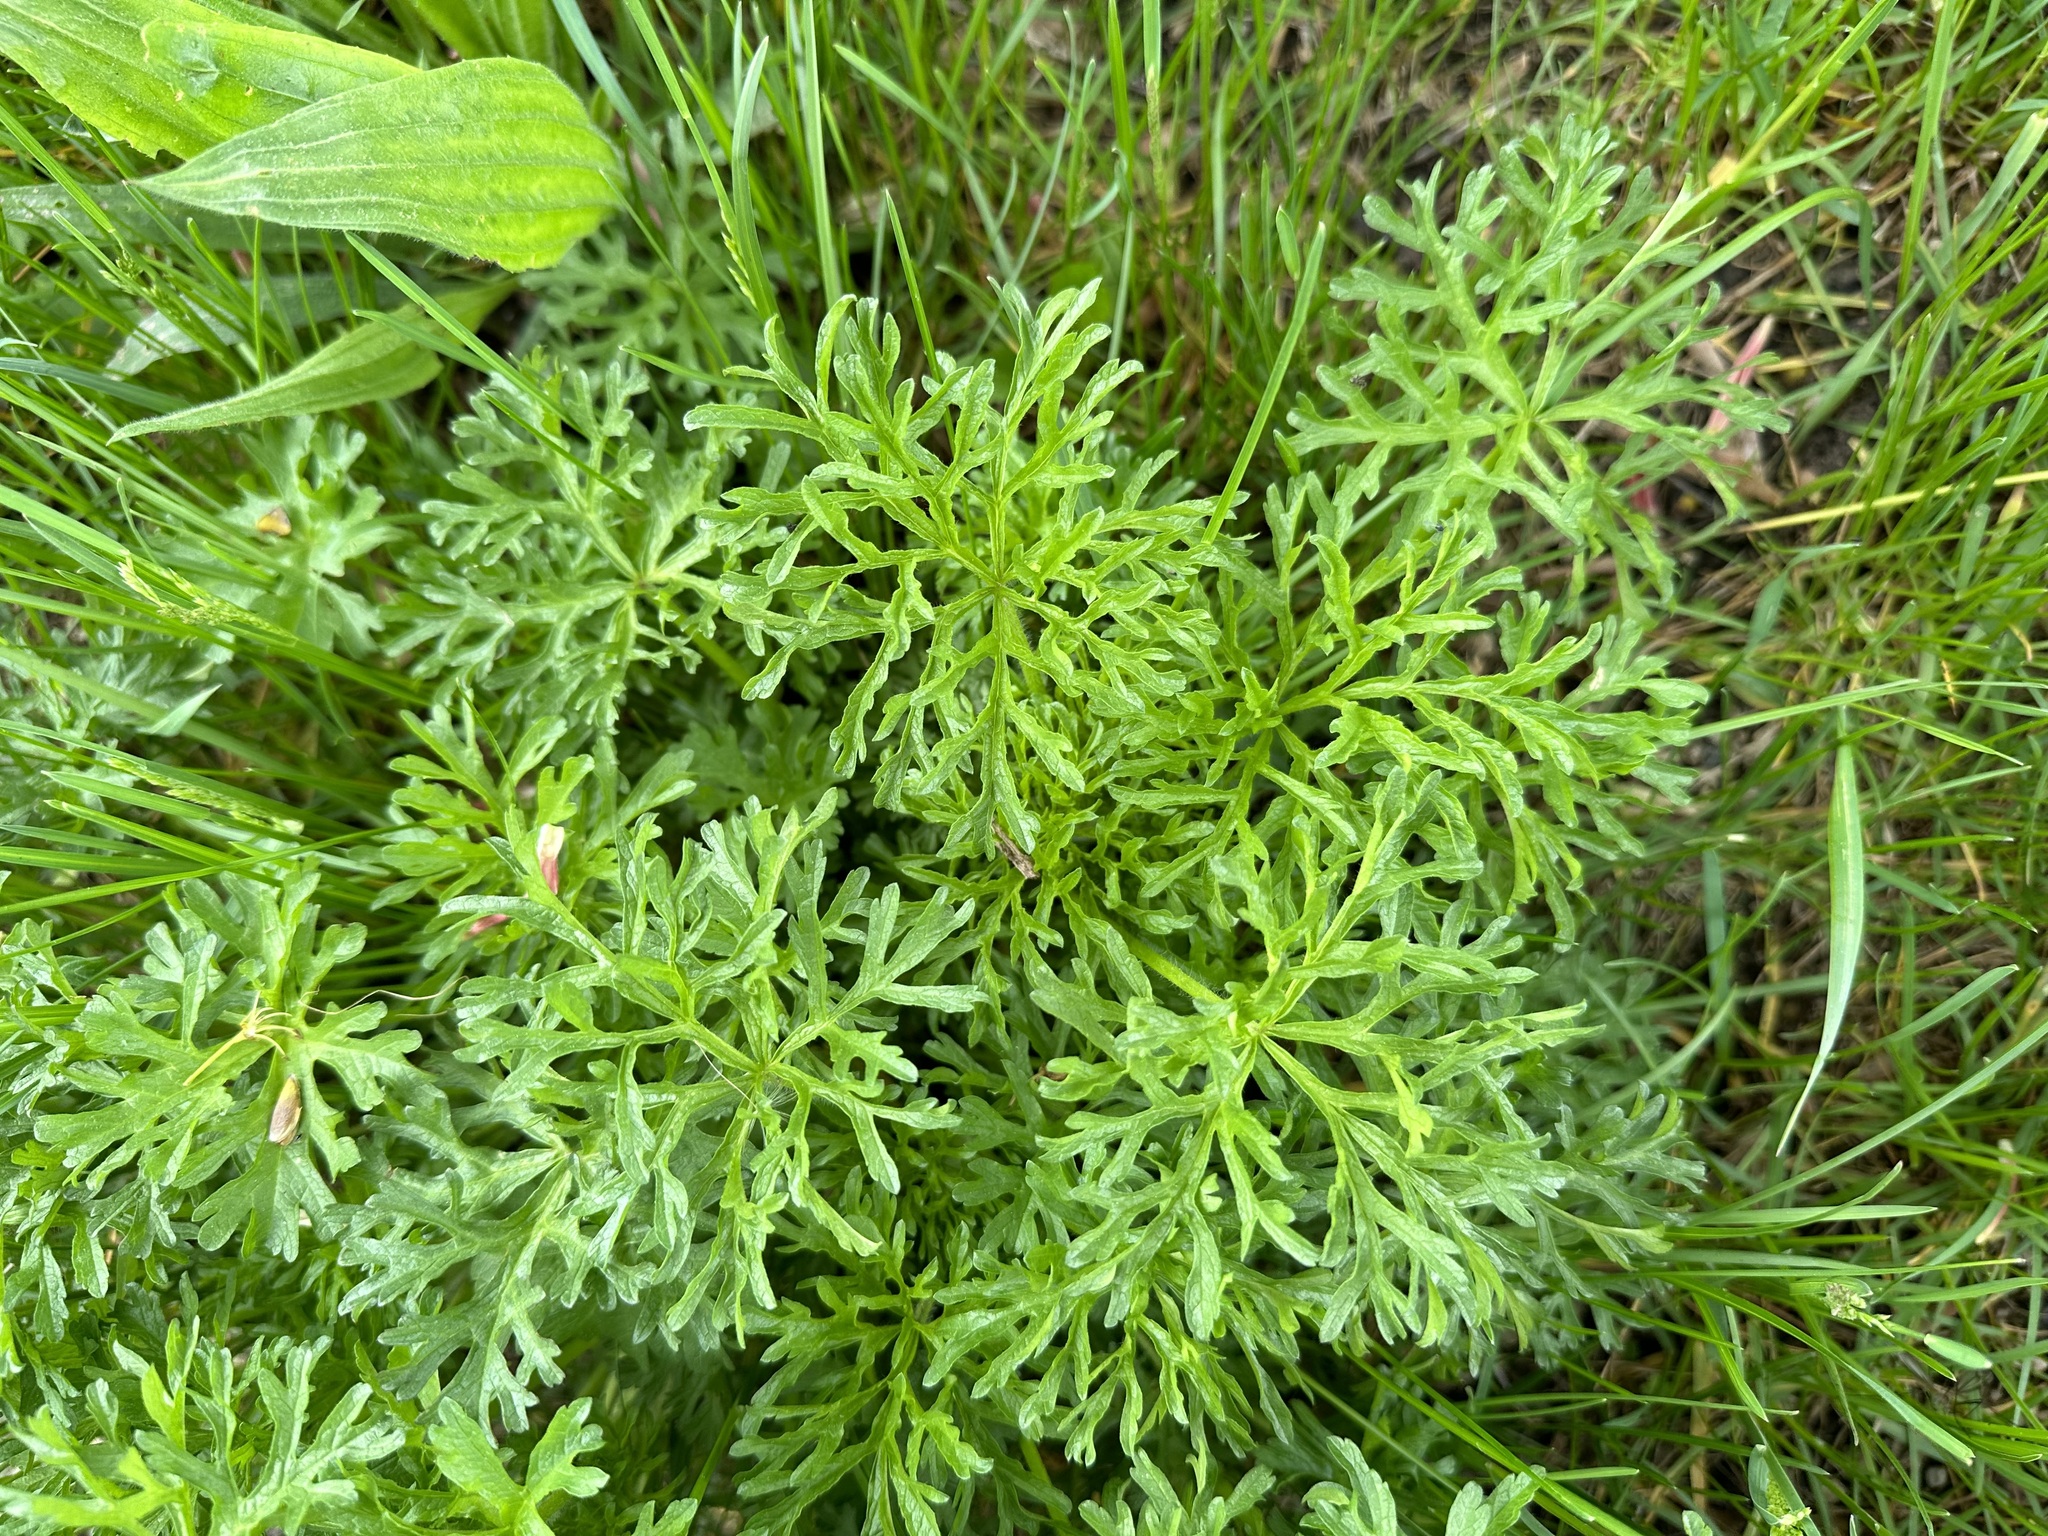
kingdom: Plantae
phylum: Tracheophyta
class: Magnoliopsida
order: Malvales
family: Malvaceae
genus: Malva
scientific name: Malva moschata
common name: Musk mallow
